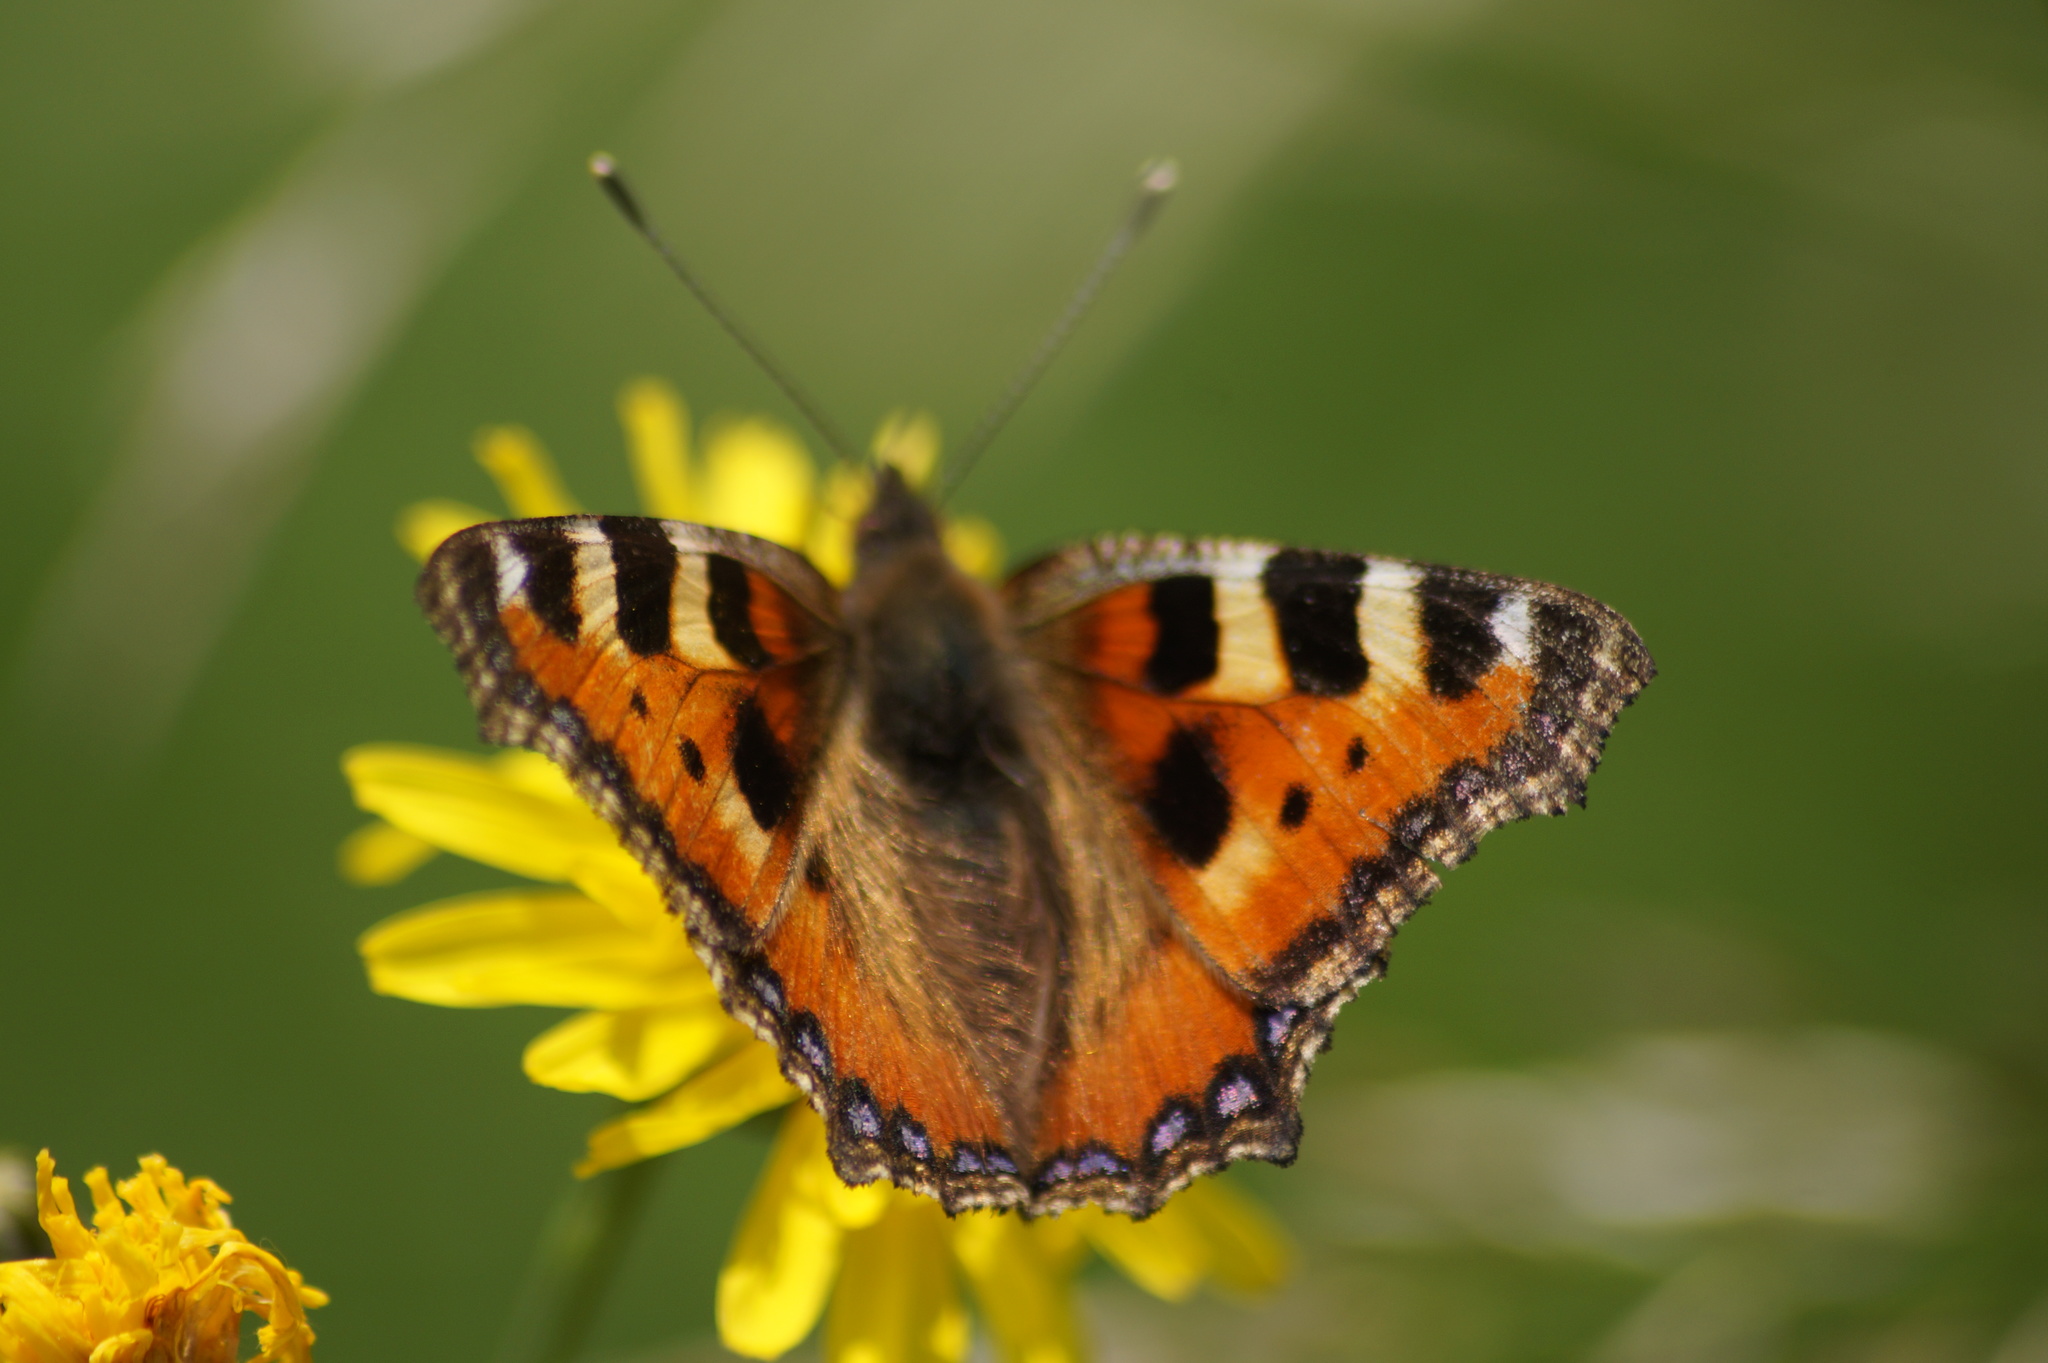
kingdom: Animalia
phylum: Arthropoda
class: Insecta
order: Lepidoptera
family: Nymphalidae
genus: Aglais
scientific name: Aglais urticae
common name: Small tortoiseshell
